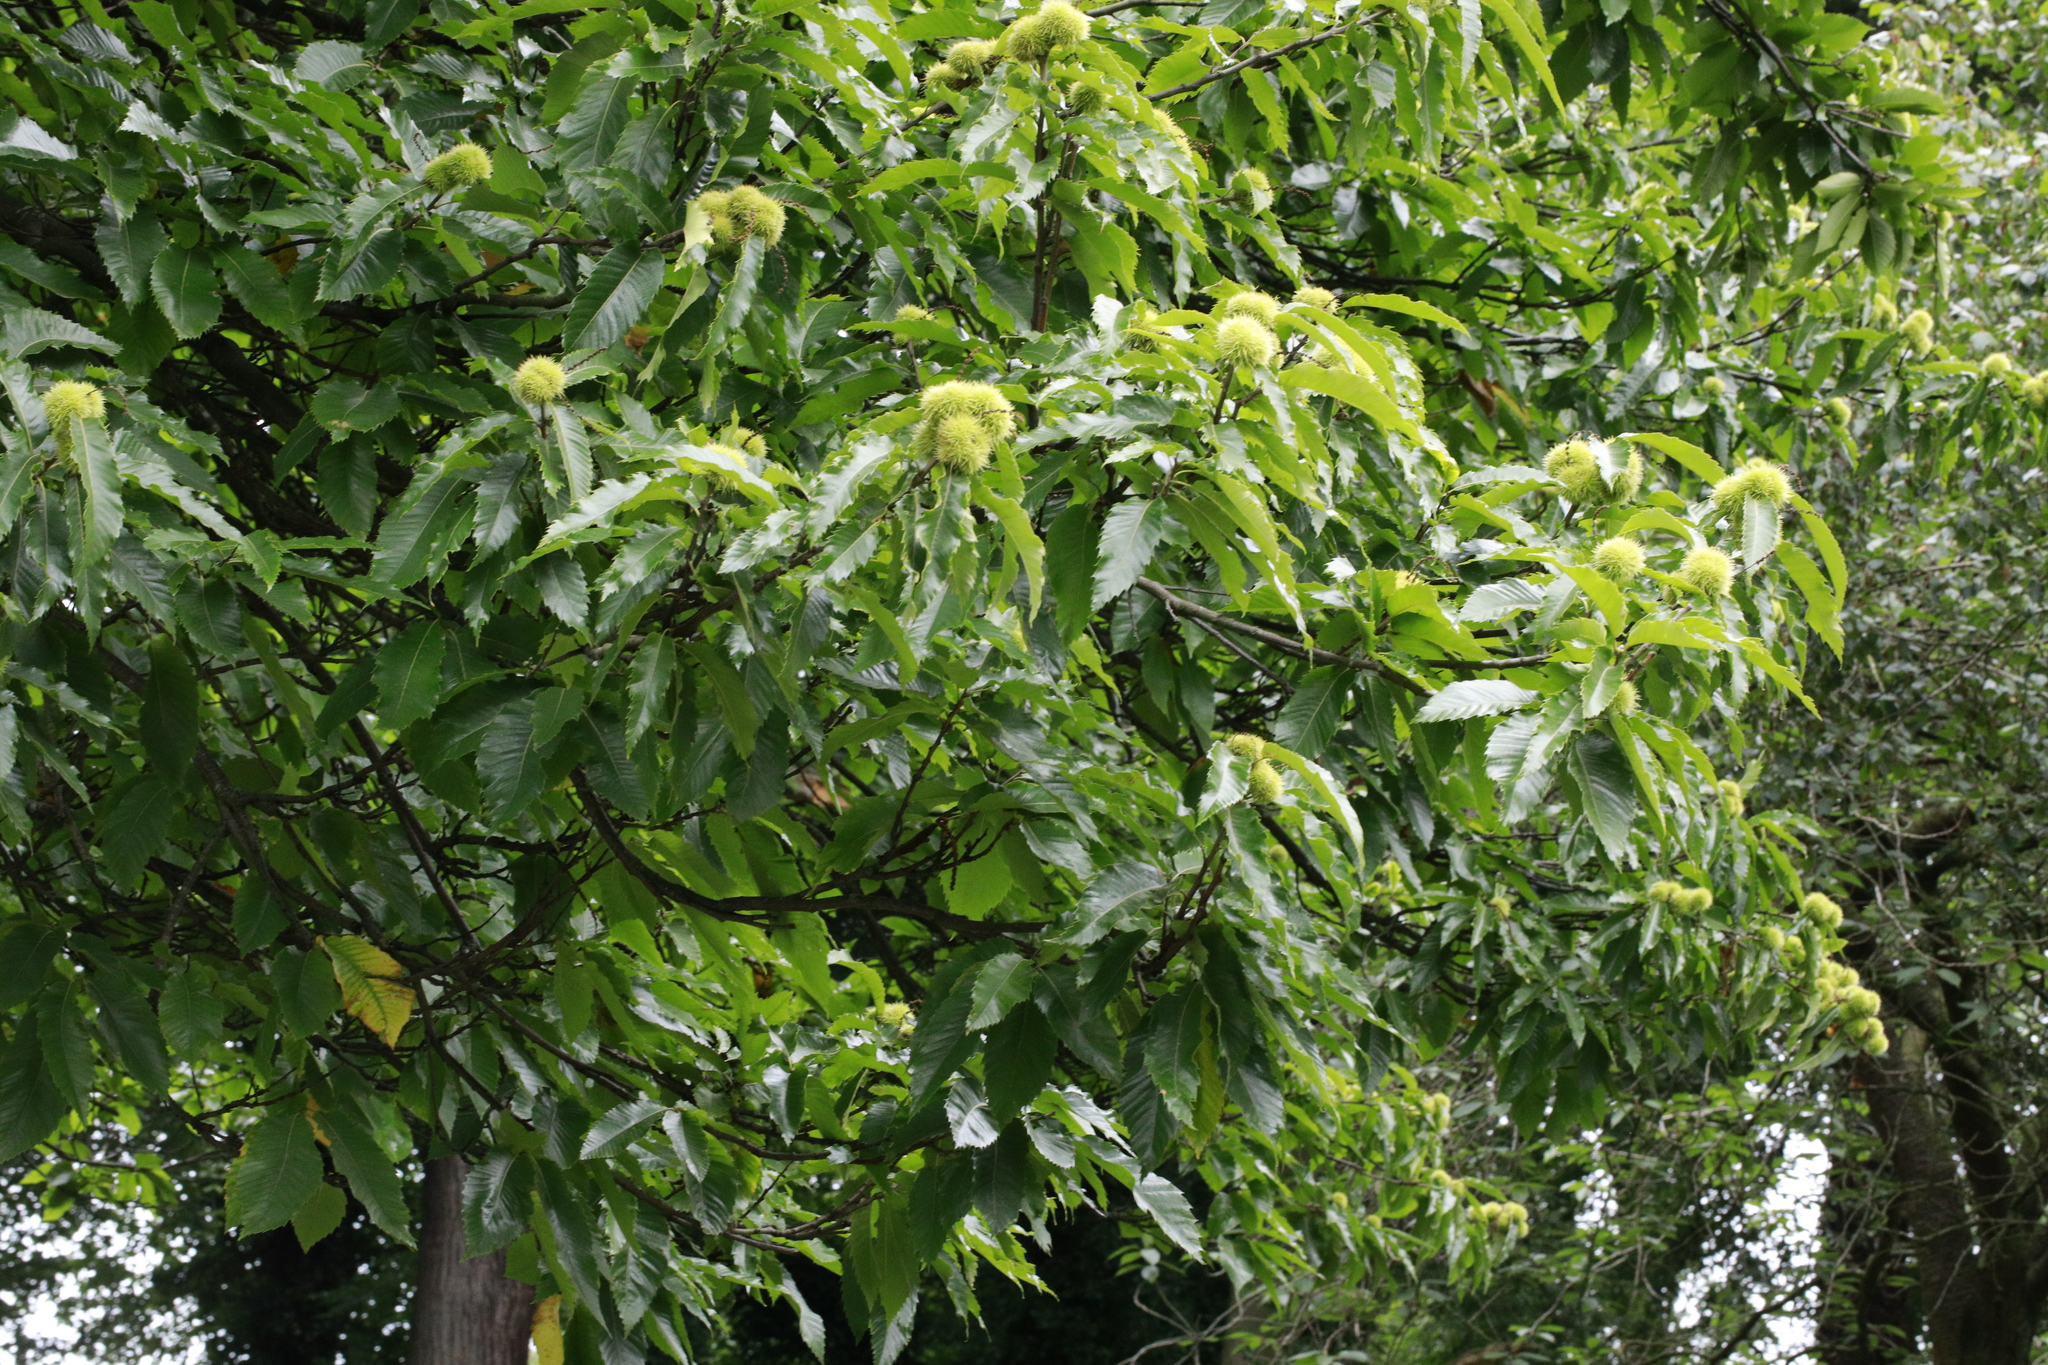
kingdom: Plantae
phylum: Tracheophyta
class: Magnoliopsida
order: Fagales
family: Fagaceae
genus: Castanea
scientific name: Castanea sativa
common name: Sweet chestnut
